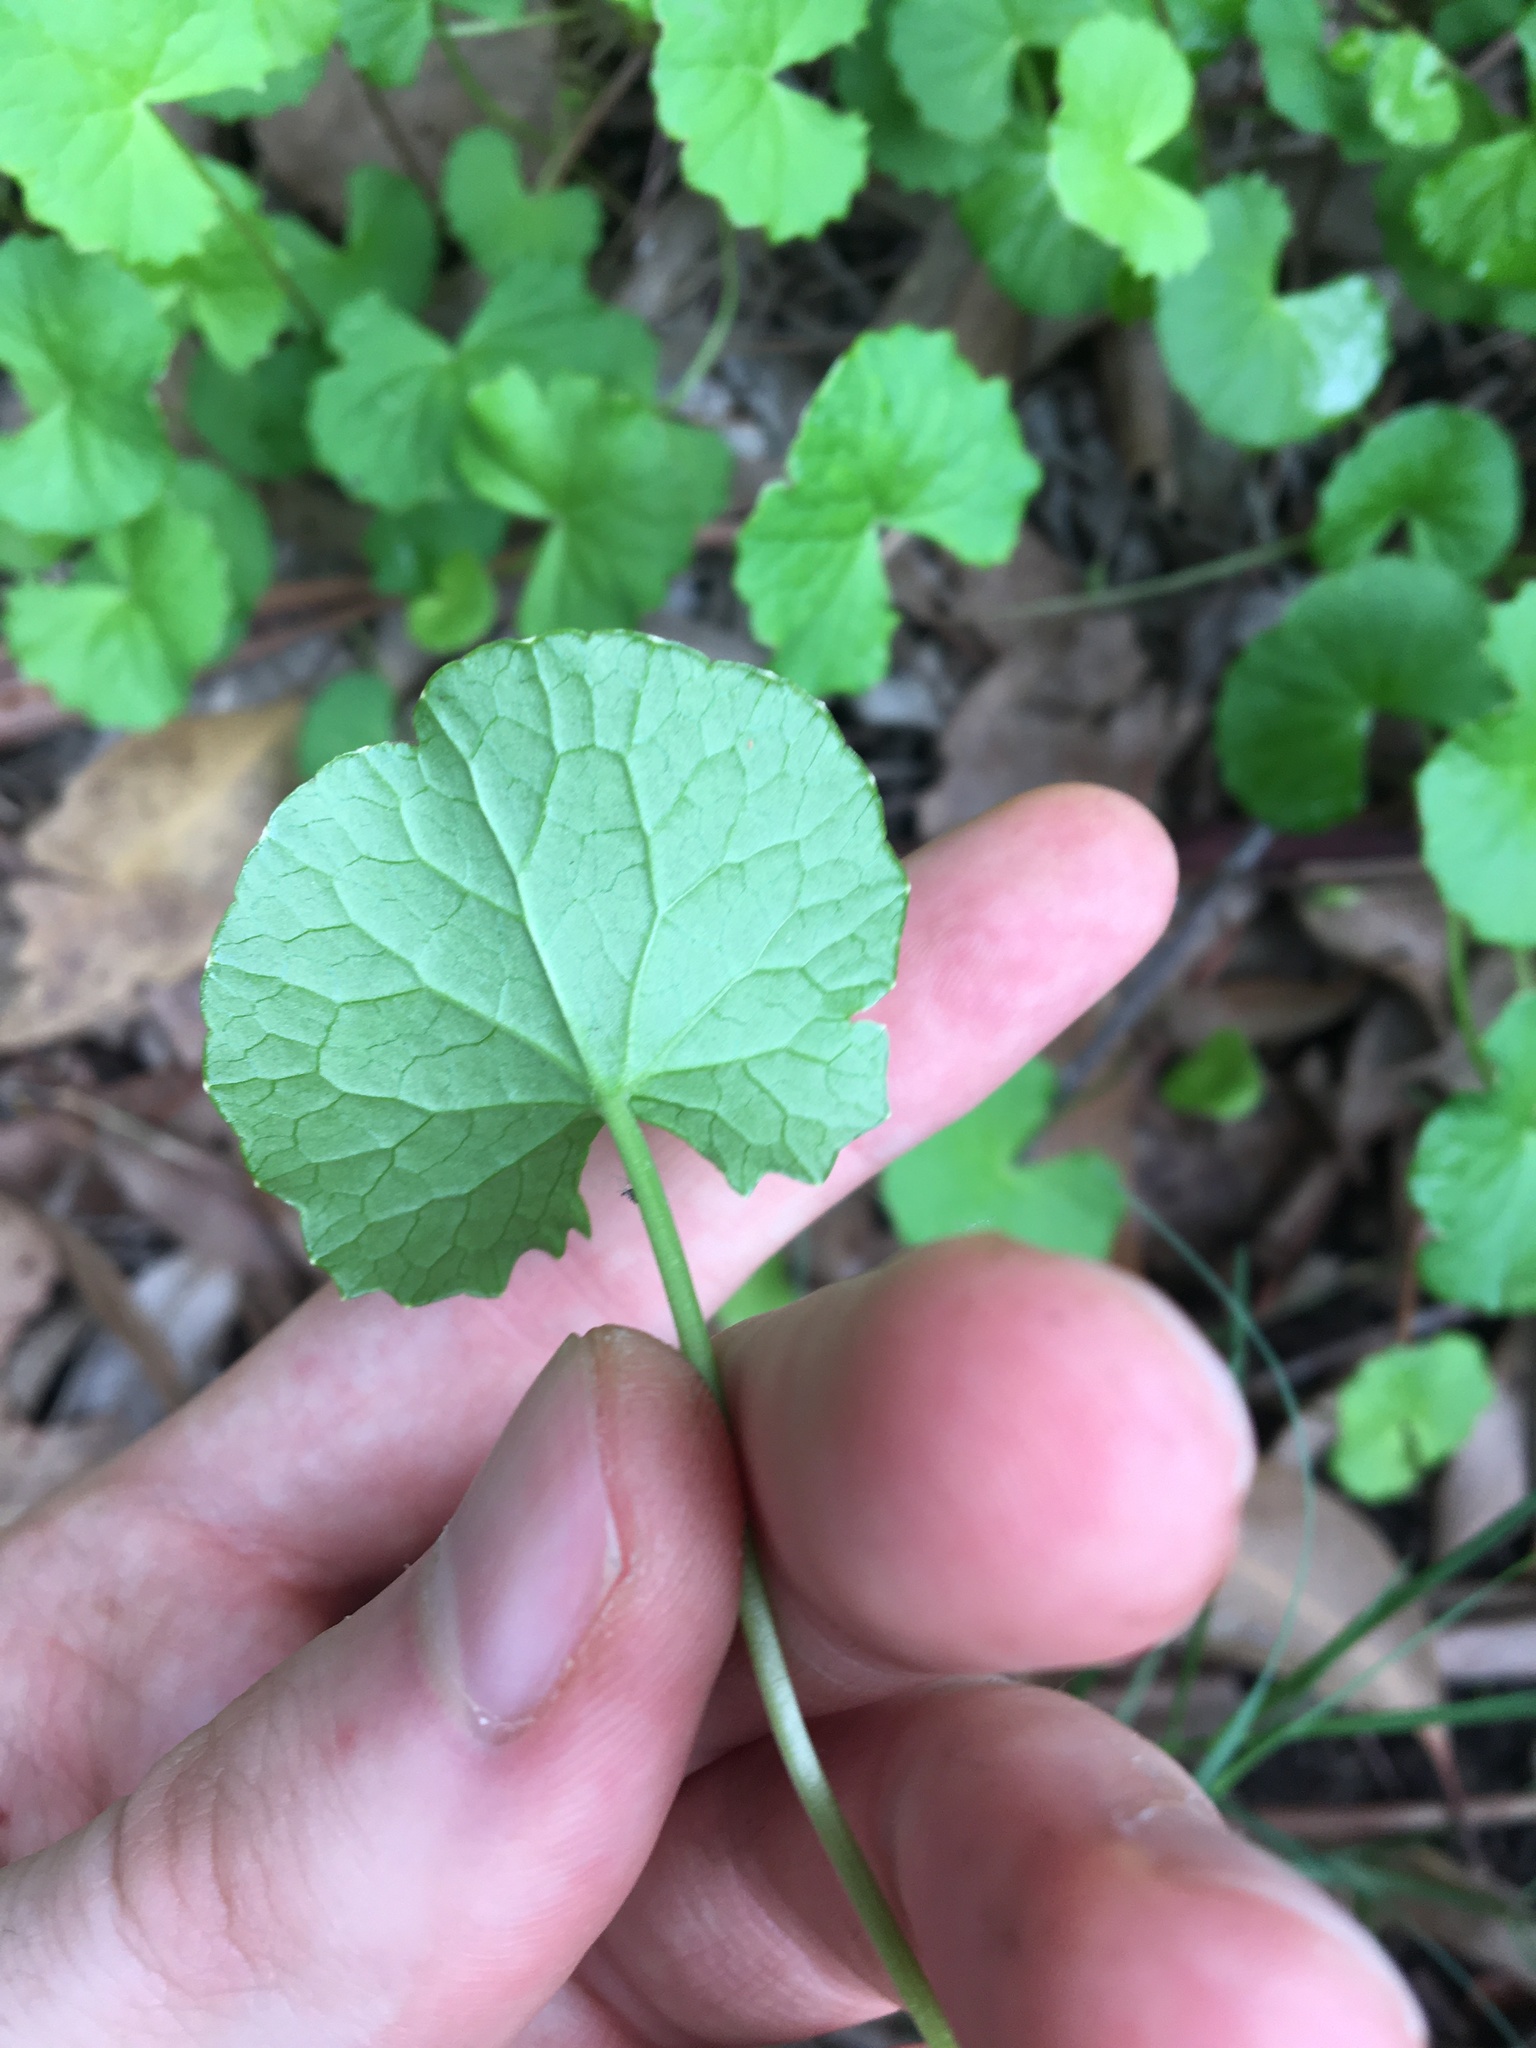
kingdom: Plantae
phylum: Tracheophyta
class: Magnoliopsida
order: Apiales
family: Apiaceae
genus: Centella
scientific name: Centella asiatica
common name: Spadeleaf
